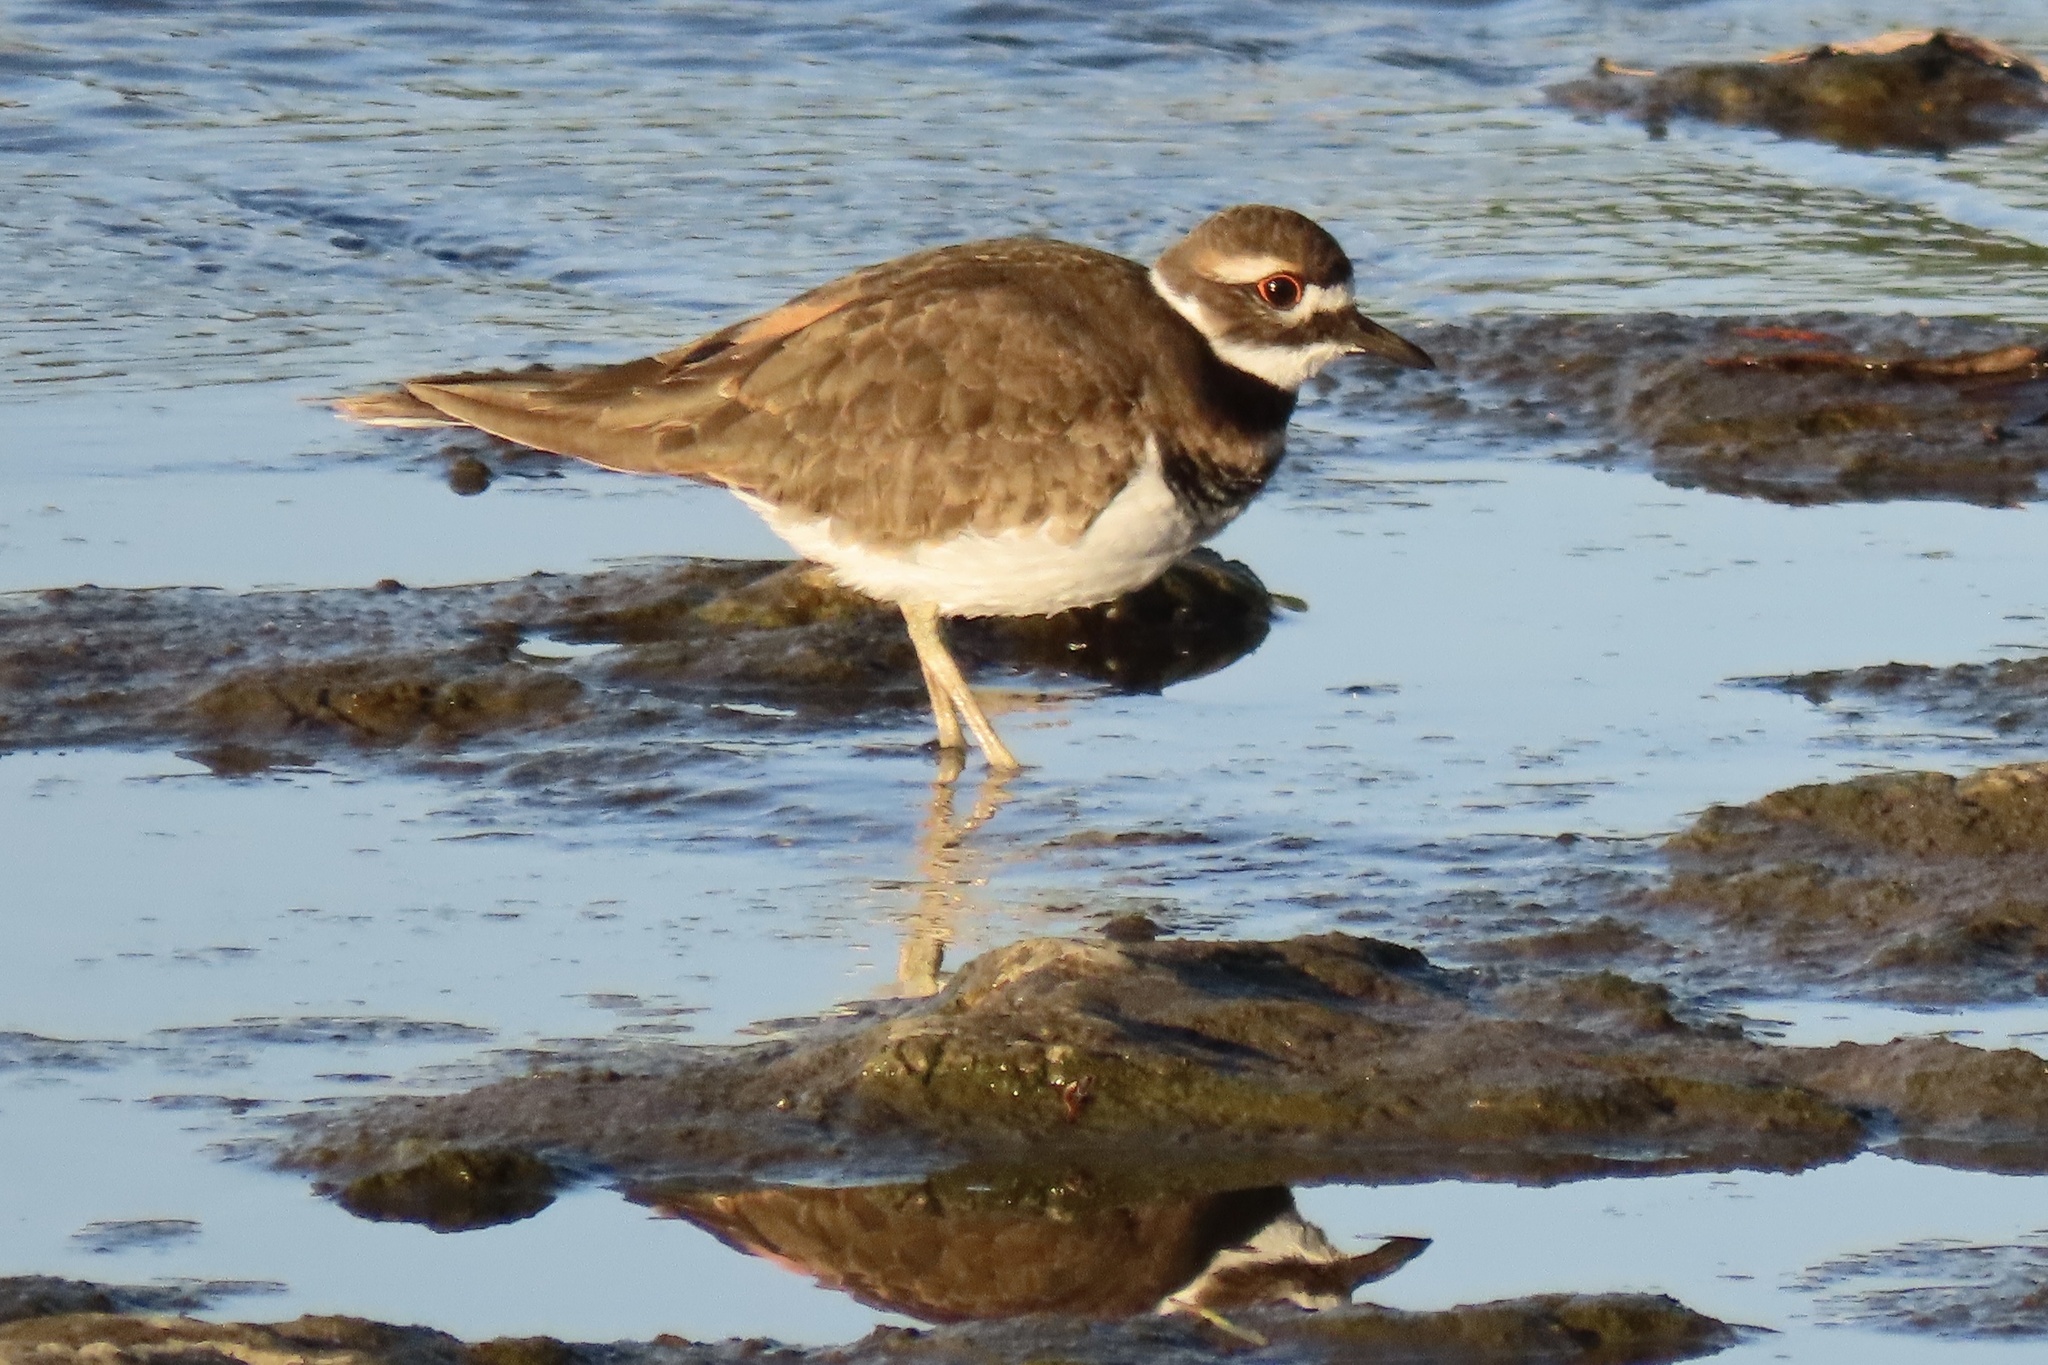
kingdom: Animalia
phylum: Chordata
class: Aves
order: Charadriiformes
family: Charadriidae
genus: Charadrius
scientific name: Charadrius vociferus
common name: Killdeer
